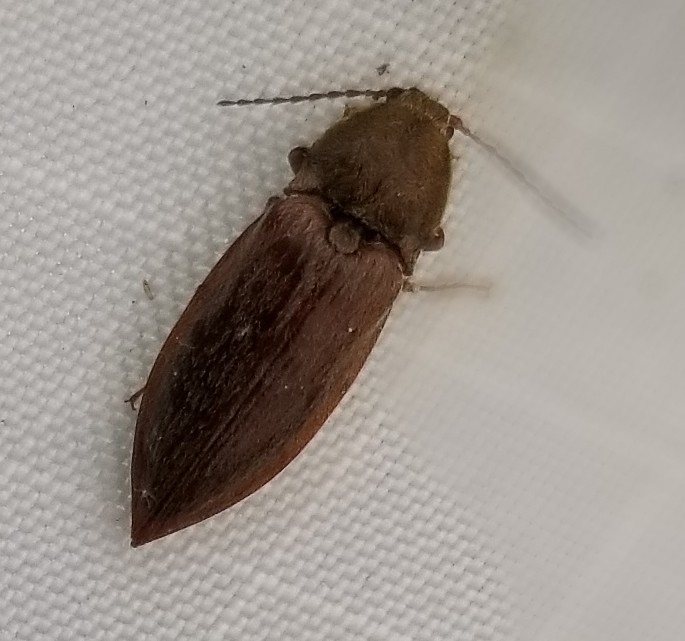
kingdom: Animalia
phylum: Arthropoda
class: Insecta
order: Coleoptera
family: Elateridae
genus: Oxygonus
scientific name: Oxygonus obesus
